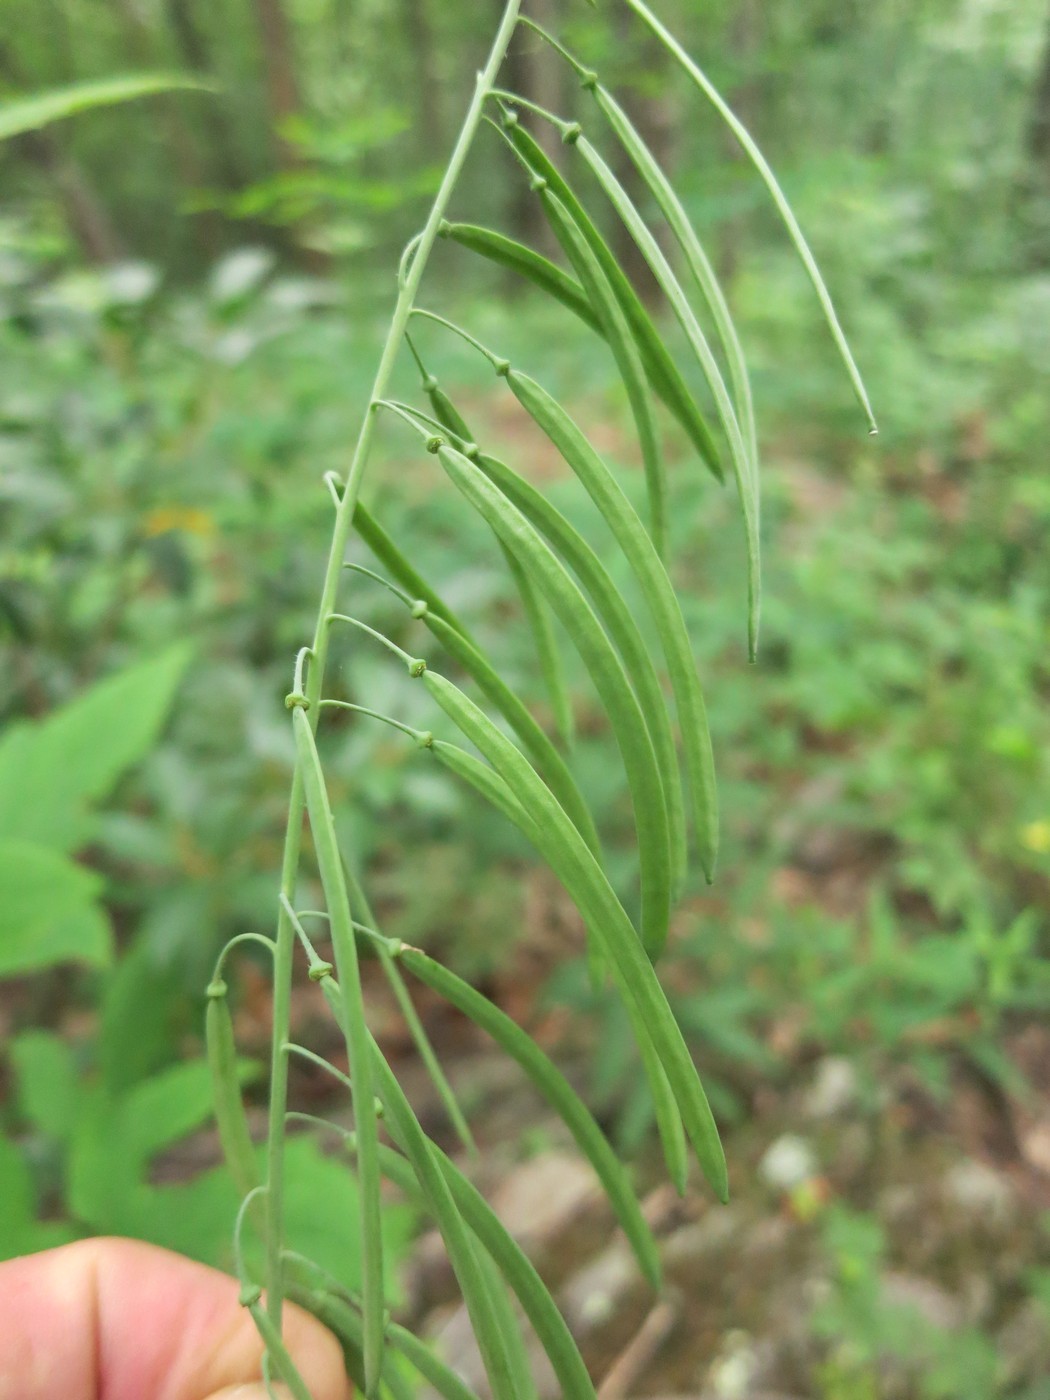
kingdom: Plantae
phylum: Tracheophyta
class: Magnoliopsida
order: Brassicales
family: Brassicaceae
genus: Borodinia
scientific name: Borodinia canadensis
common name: Sicklepod
